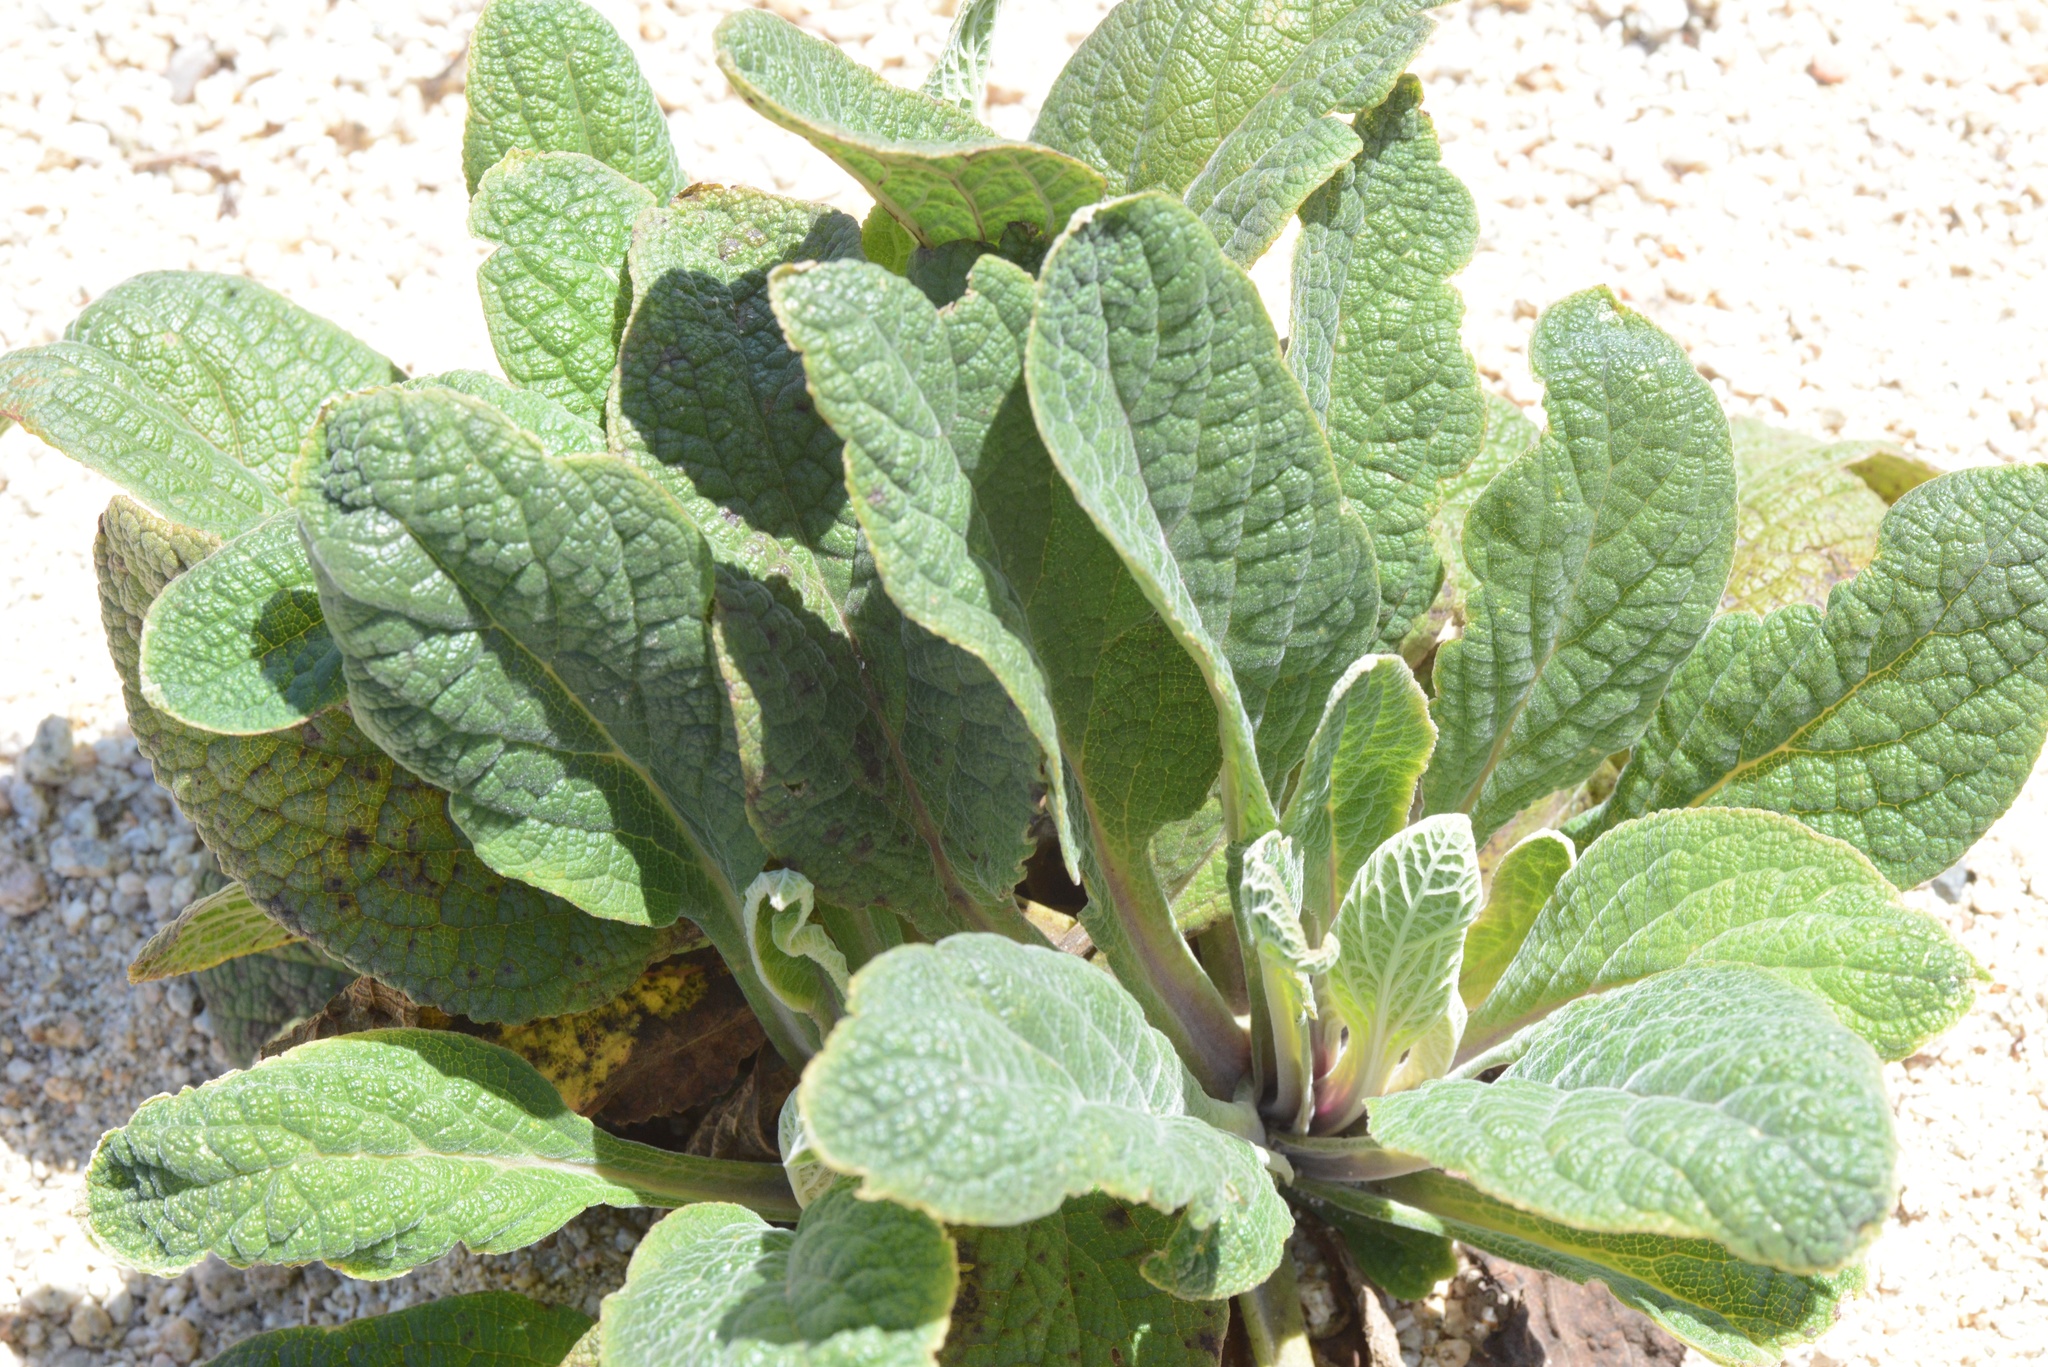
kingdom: Plantae
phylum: Tracheophyta
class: Magnoliopsida
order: Lamiales
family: Plantaginaceae
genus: Digitalis
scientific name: Digitalis purpurea
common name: Foxglove
